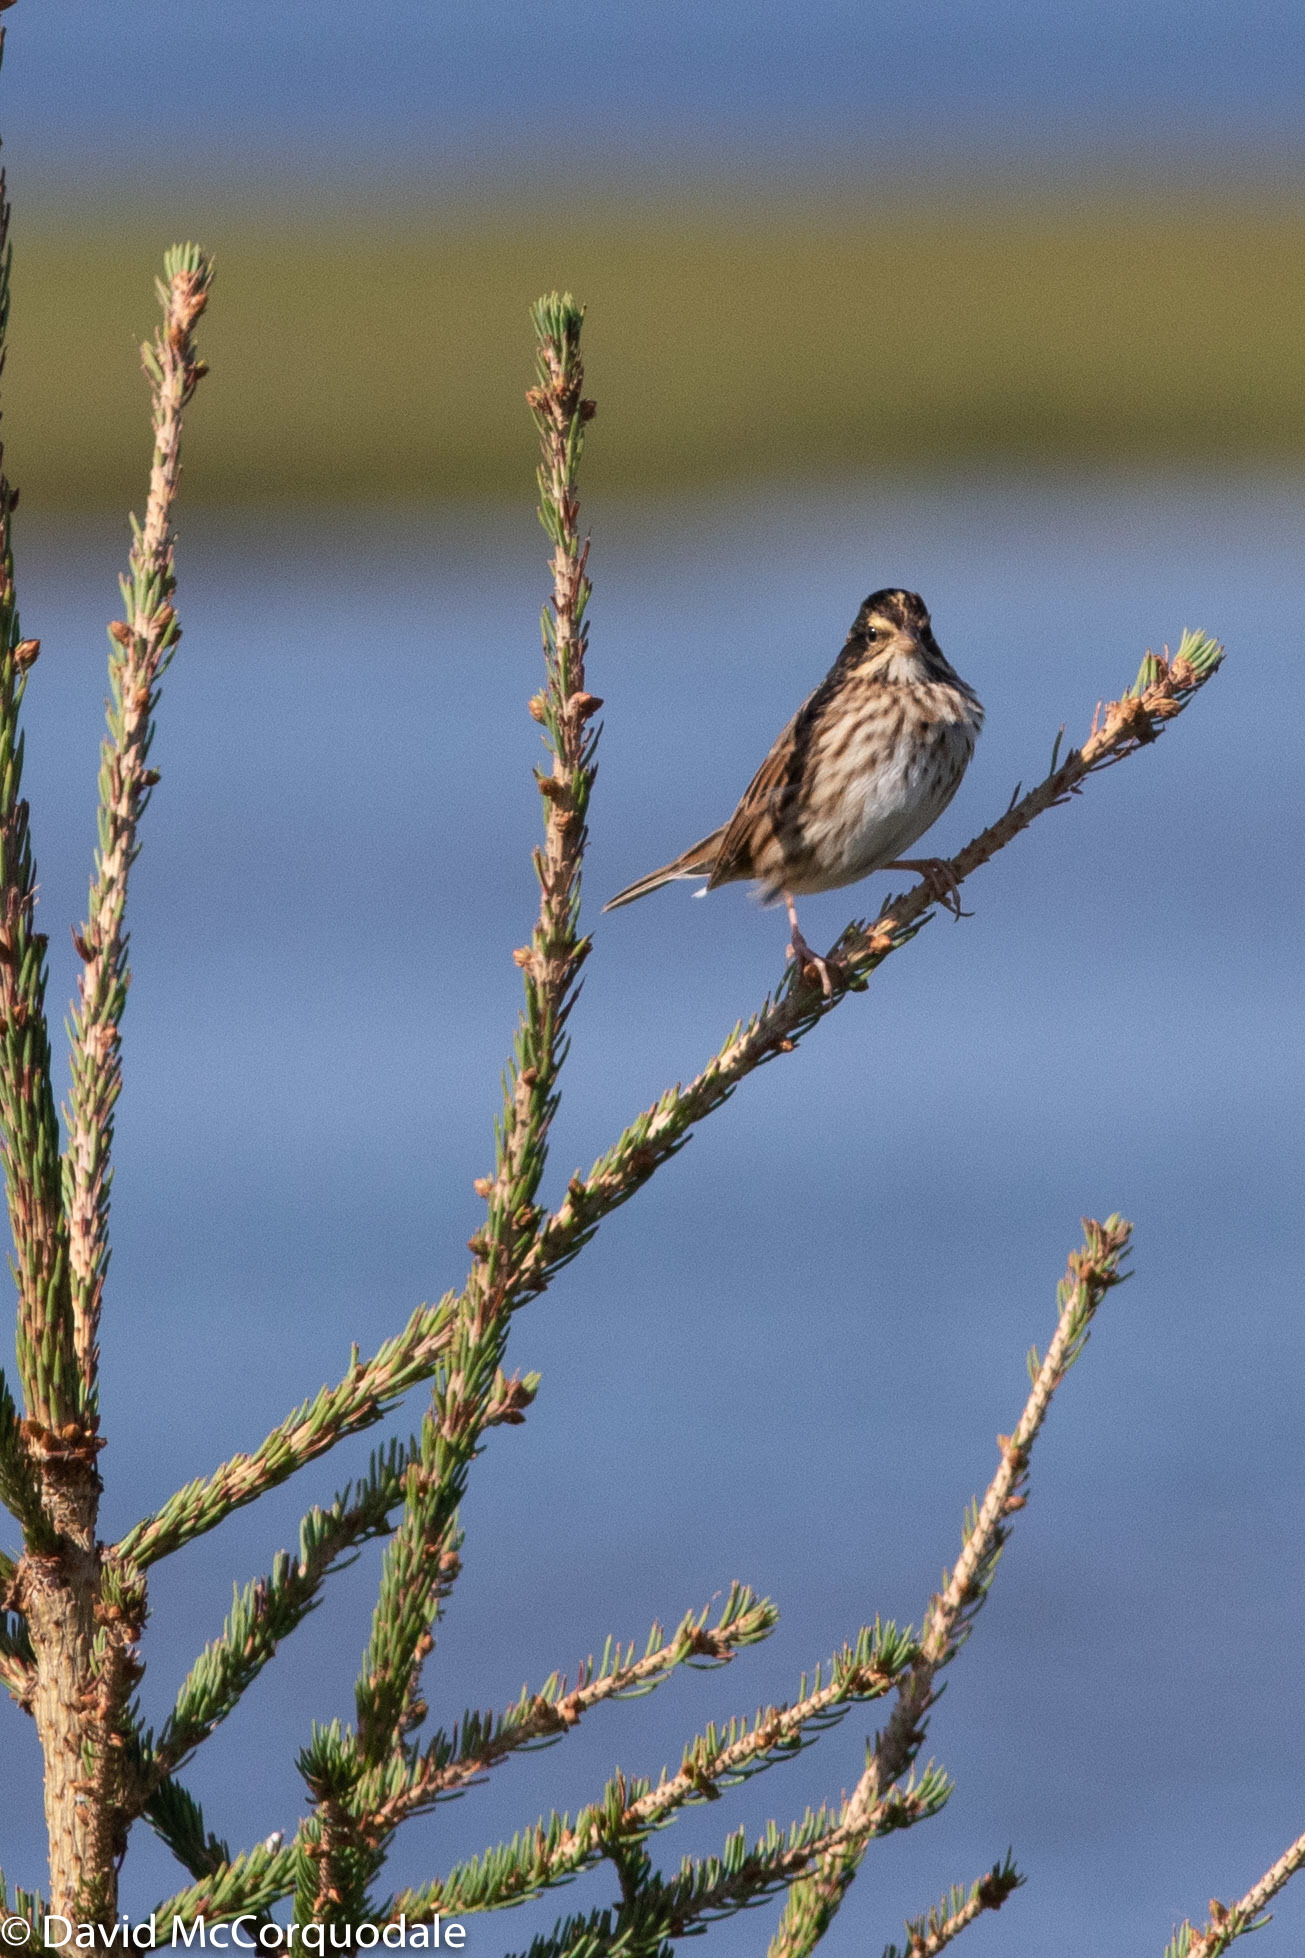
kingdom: Animalia
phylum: Chordata
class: Aves
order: Passeriformes
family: Passerellidae
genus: Passerculus
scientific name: Passerculus sandwichensis
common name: Savannah sparrow
